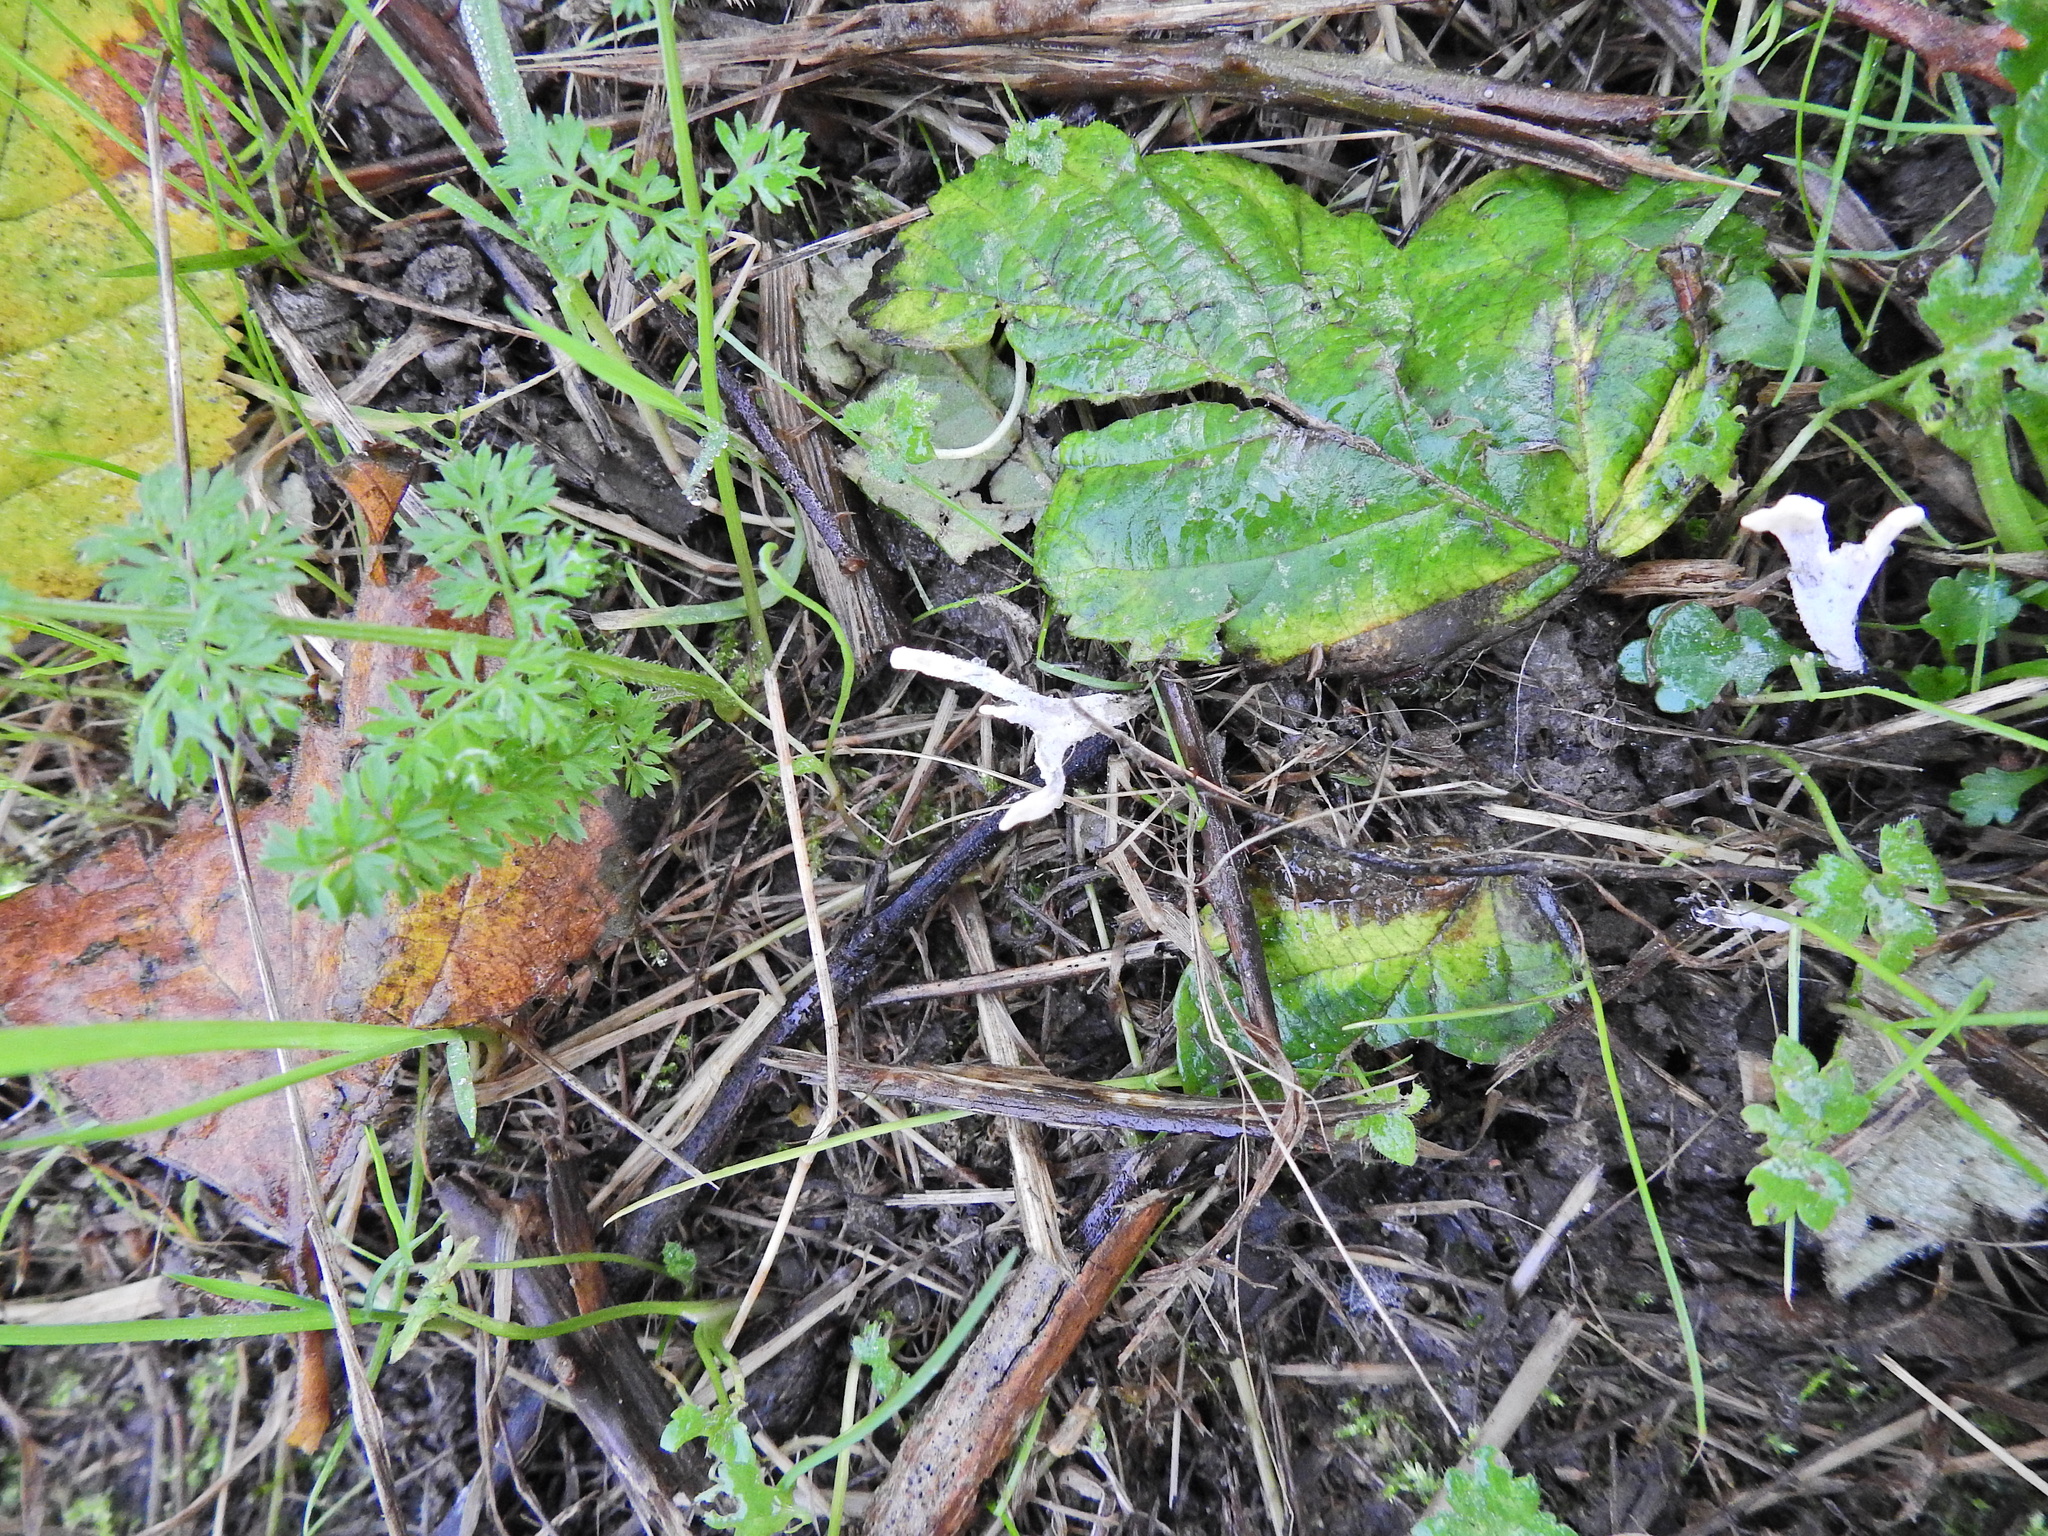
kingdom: Fungi
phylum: Ascomycota
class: Sordariomycetes
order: Xylariales
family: Xylariaceae
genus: Xylaria
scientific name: Xylaria hypoxylon
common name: Candle-snuff fungus
